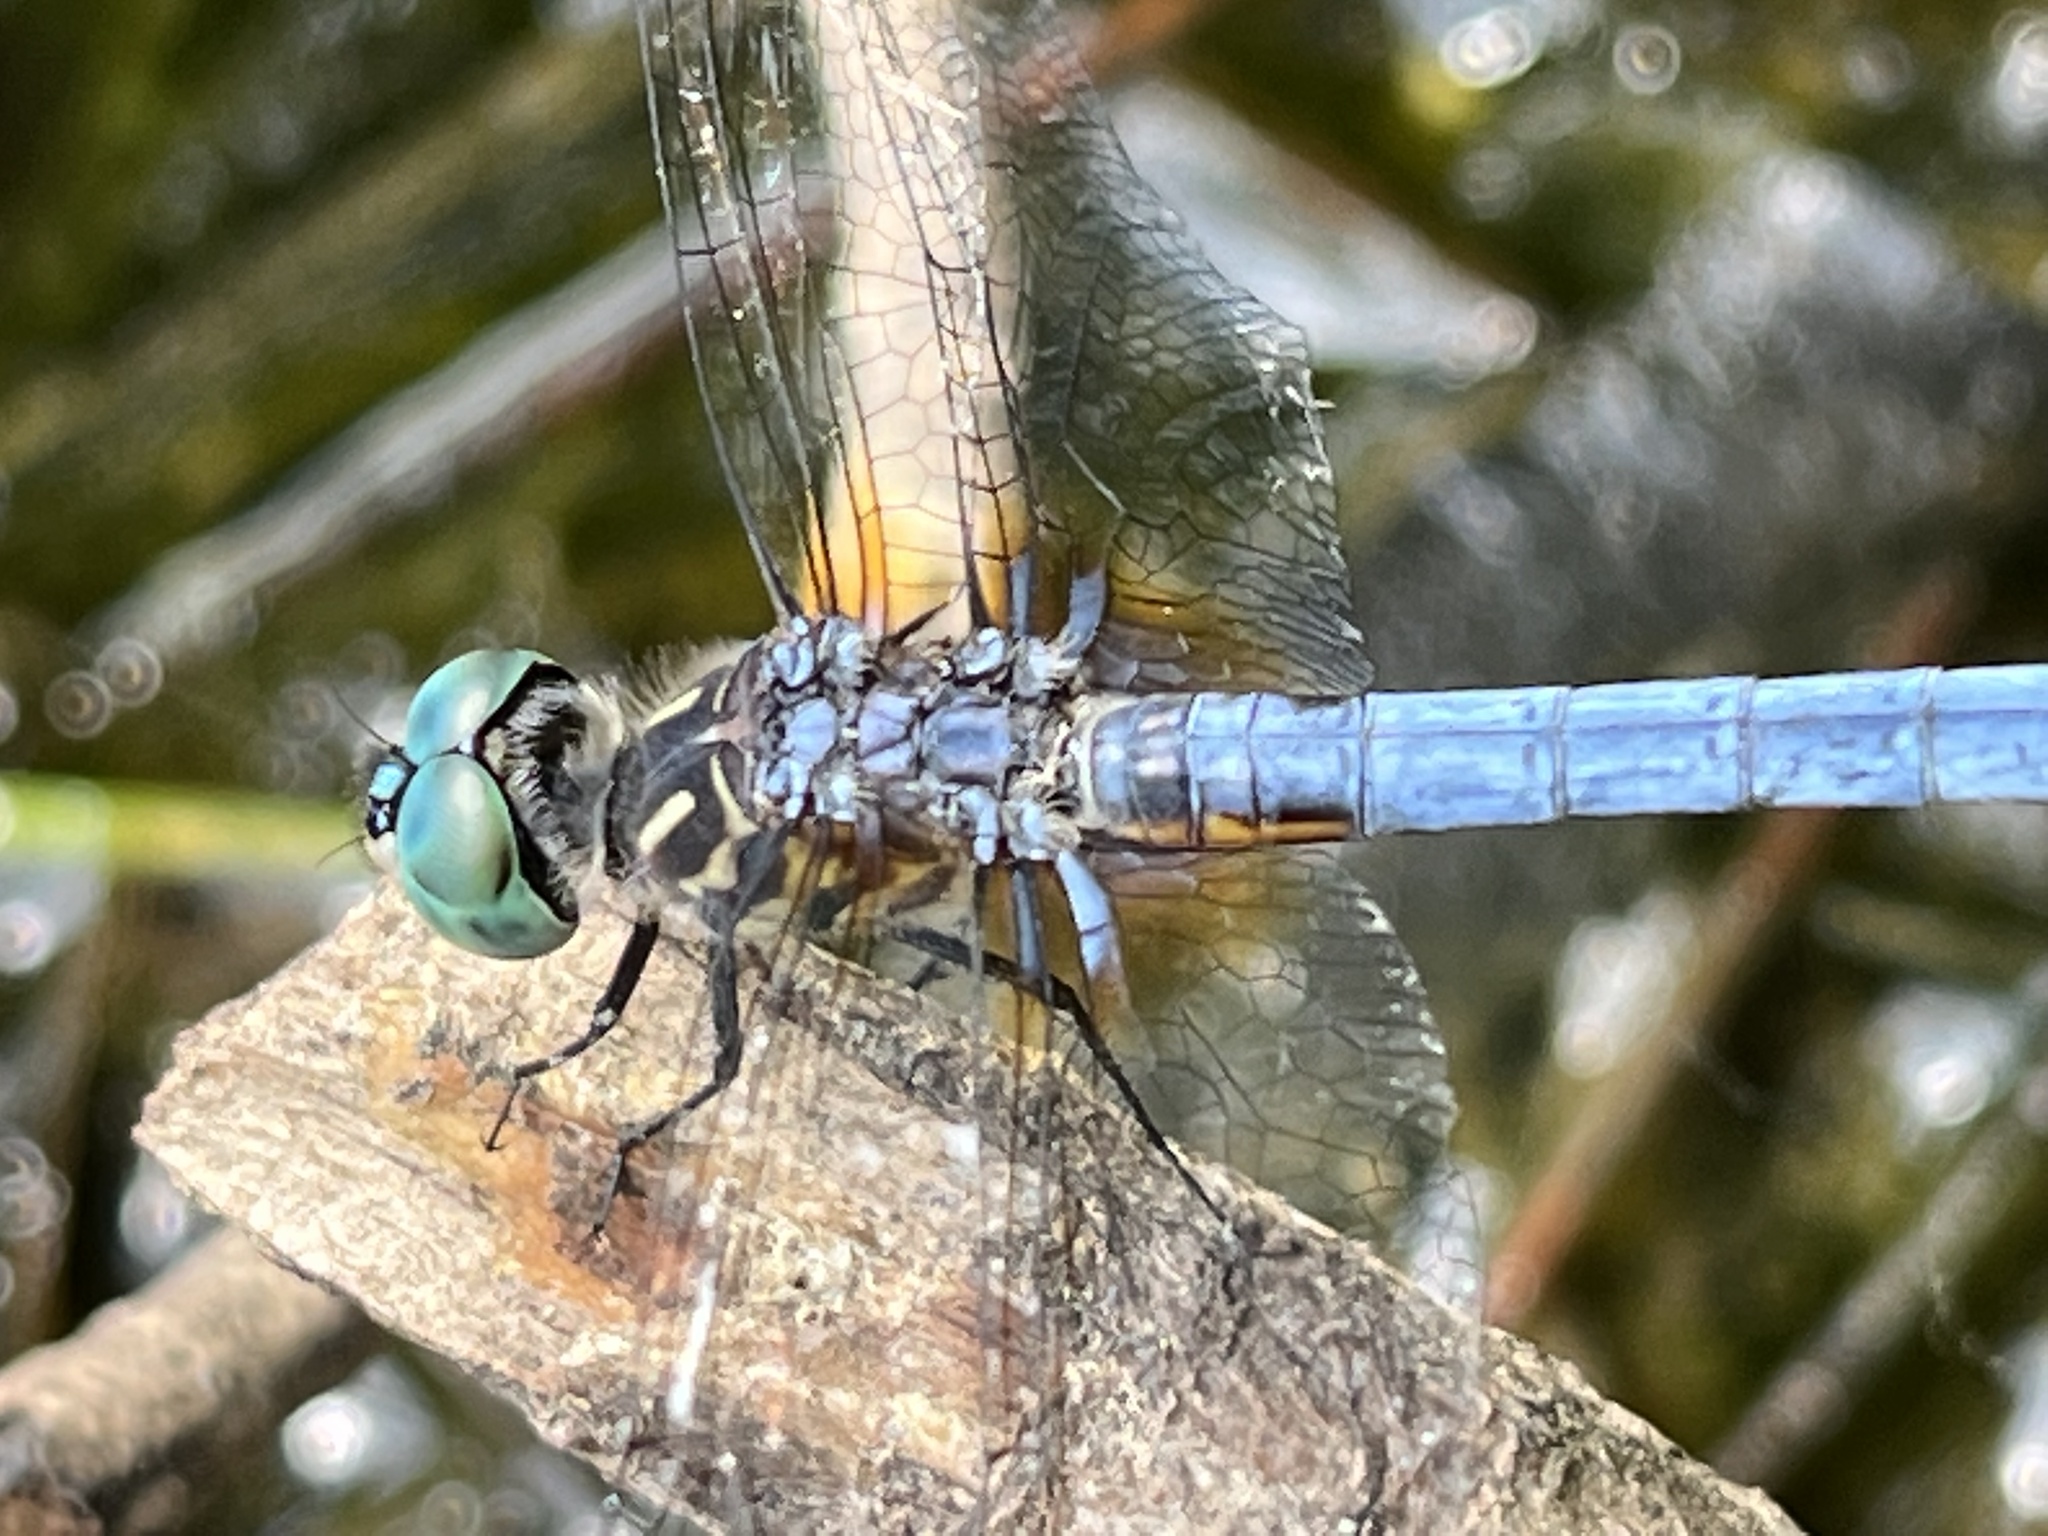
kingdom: Animalia
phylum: Arthropoda
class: Insecta
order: Odonata
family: Libellulidae
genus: Pachydiplax
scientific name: Pachydiplax longipennis
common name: Blue dasher
